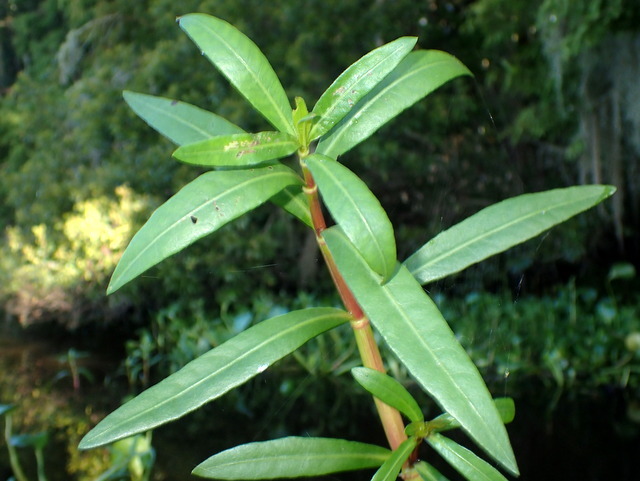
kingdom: Plantae
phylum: Tracheophyta
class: Magnoliopsida
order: Caryophyllales
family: Amaranthaceae
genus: Alternanthera
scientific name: Alternanthera philoxeroides
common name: Alligatorweed
